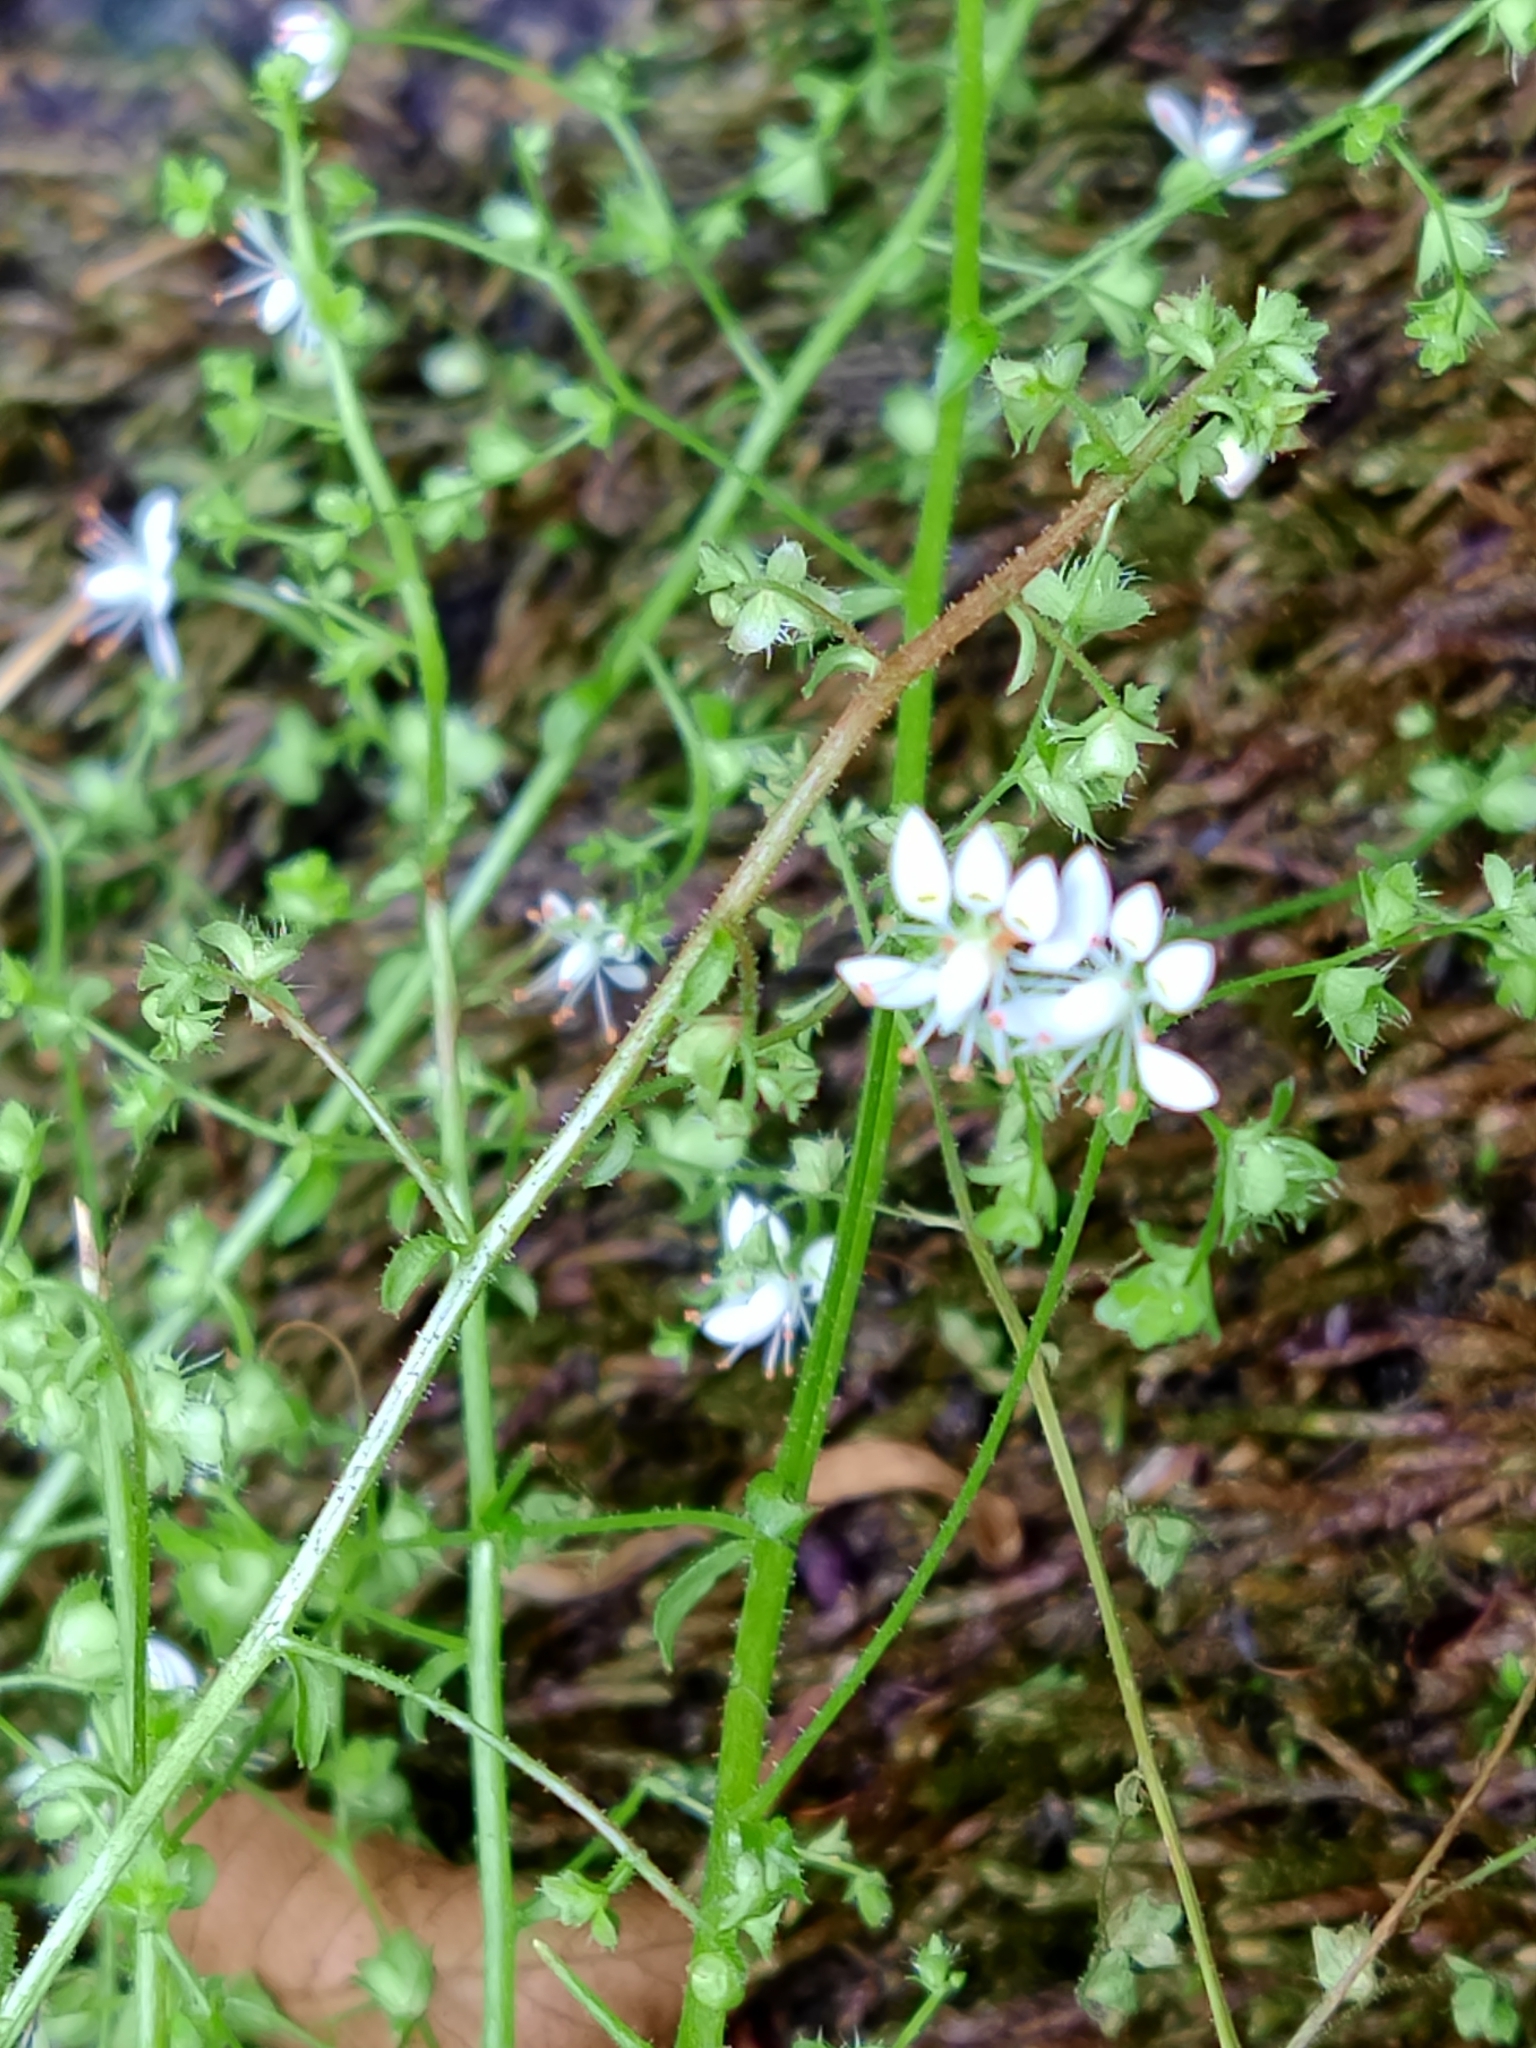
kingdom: Plantae
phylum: Tracheophyta
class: Magnoliopsida
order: Saxifragales
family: Saxifragaceae
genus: Micranthes
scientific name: Micranthes clusii
